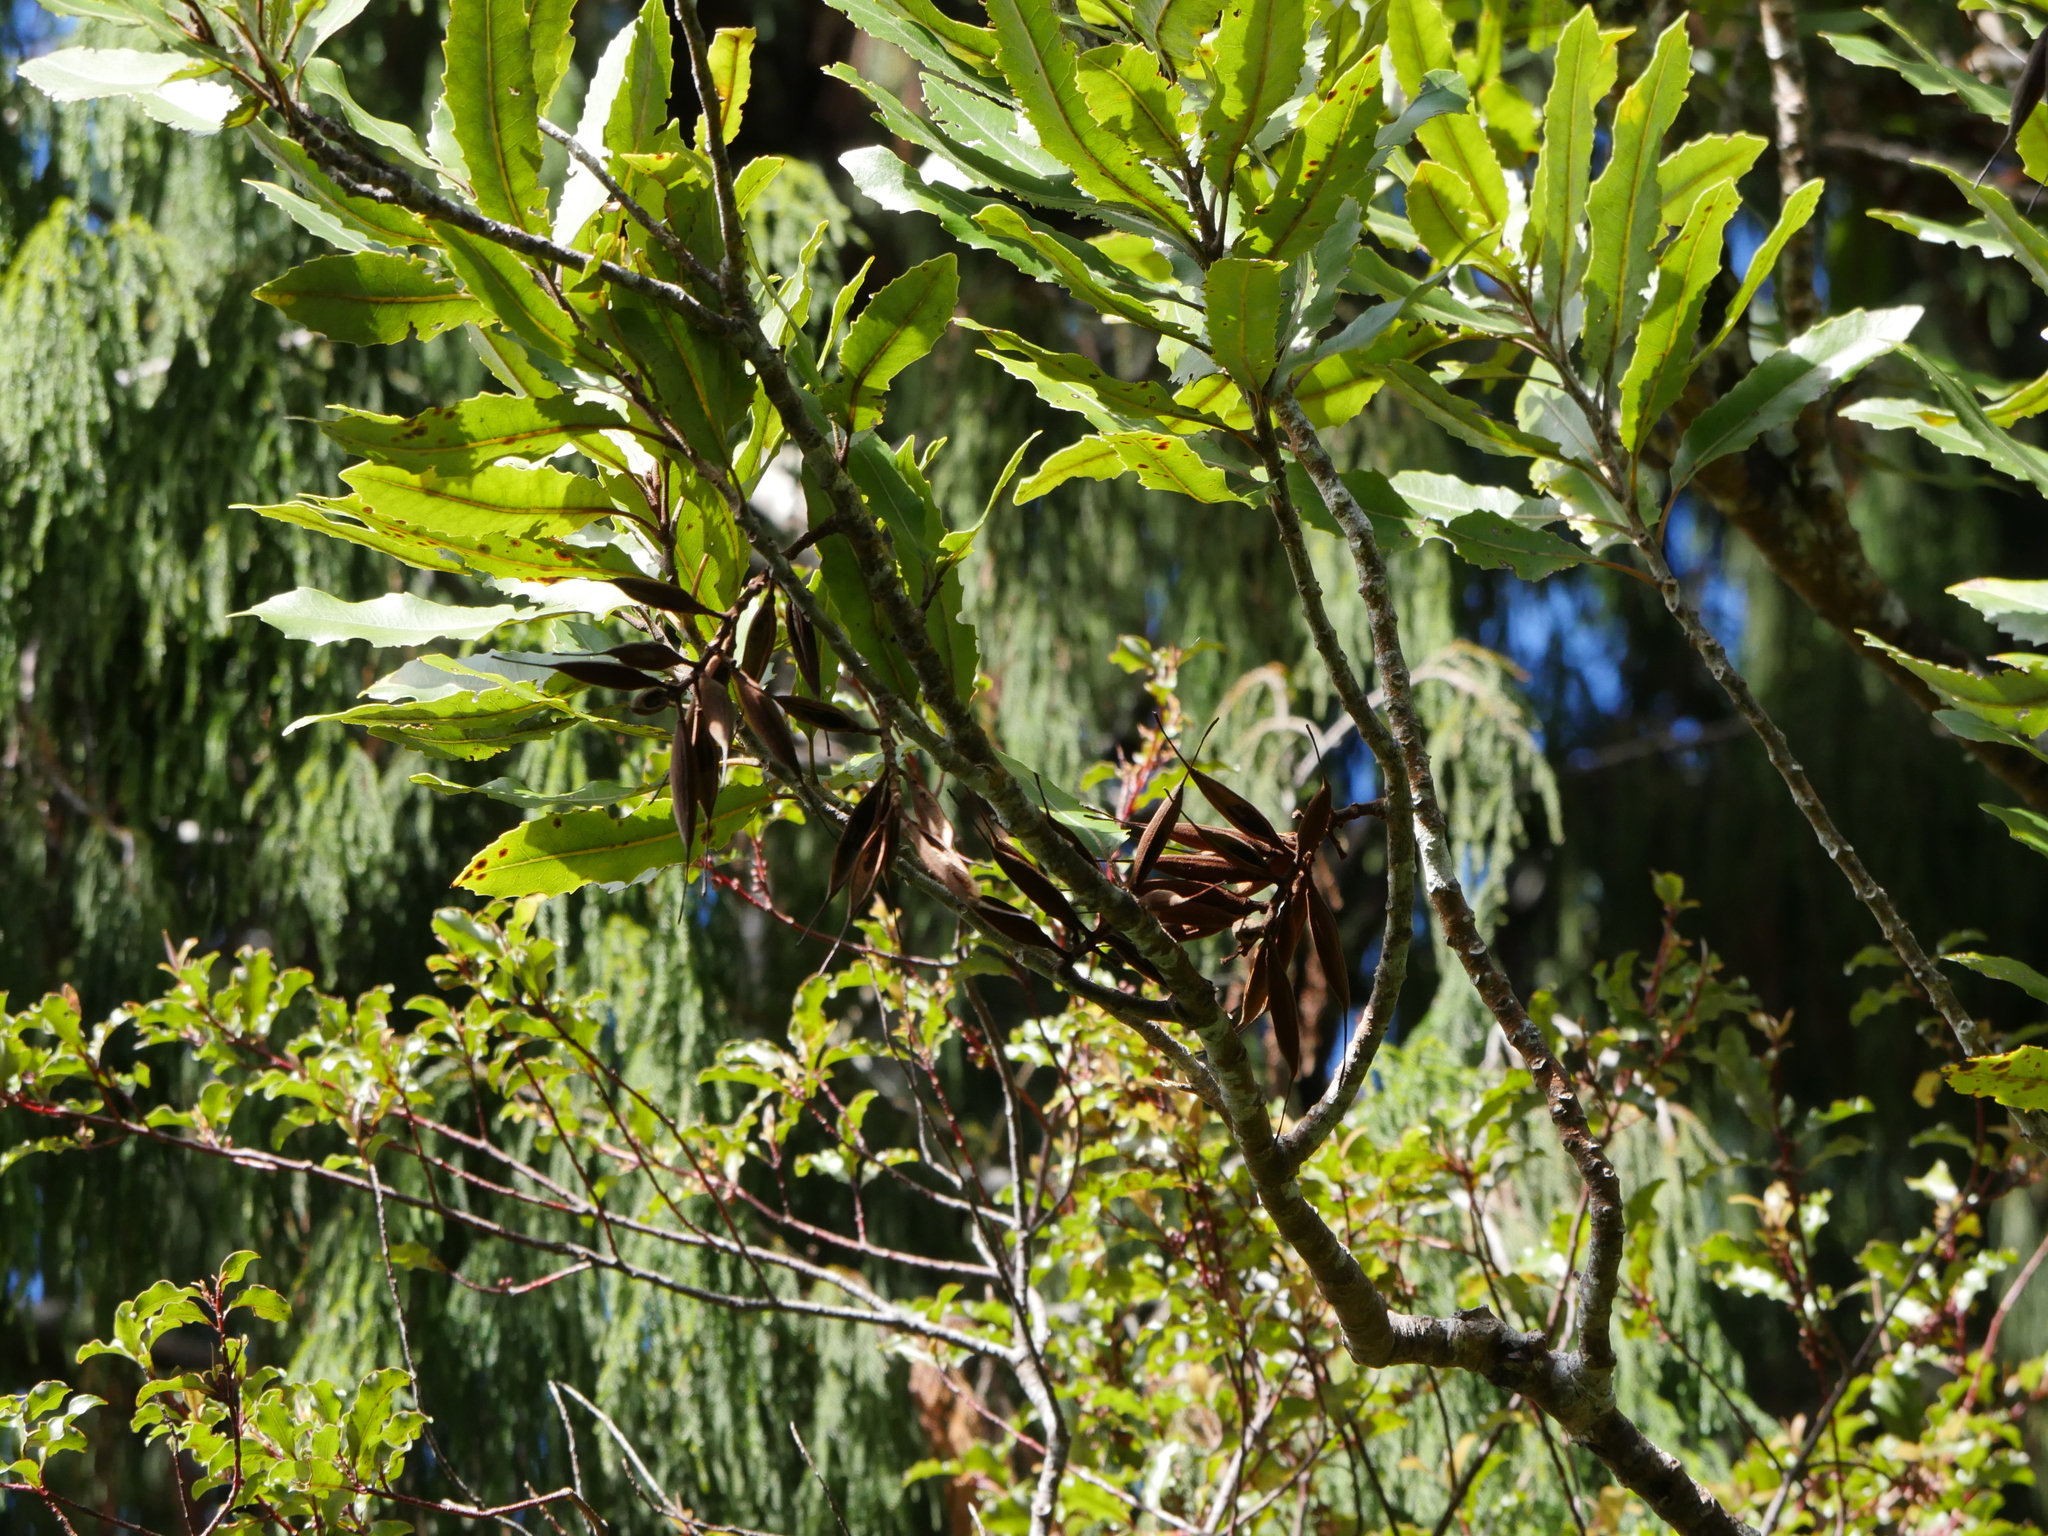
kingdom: Plantae
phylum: Tracheophyta
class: Magnoliopsida
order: Proteales
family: Proteaceae
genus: Knightia
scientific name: Knightia excelsa
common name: New zealand-honeysuckle
